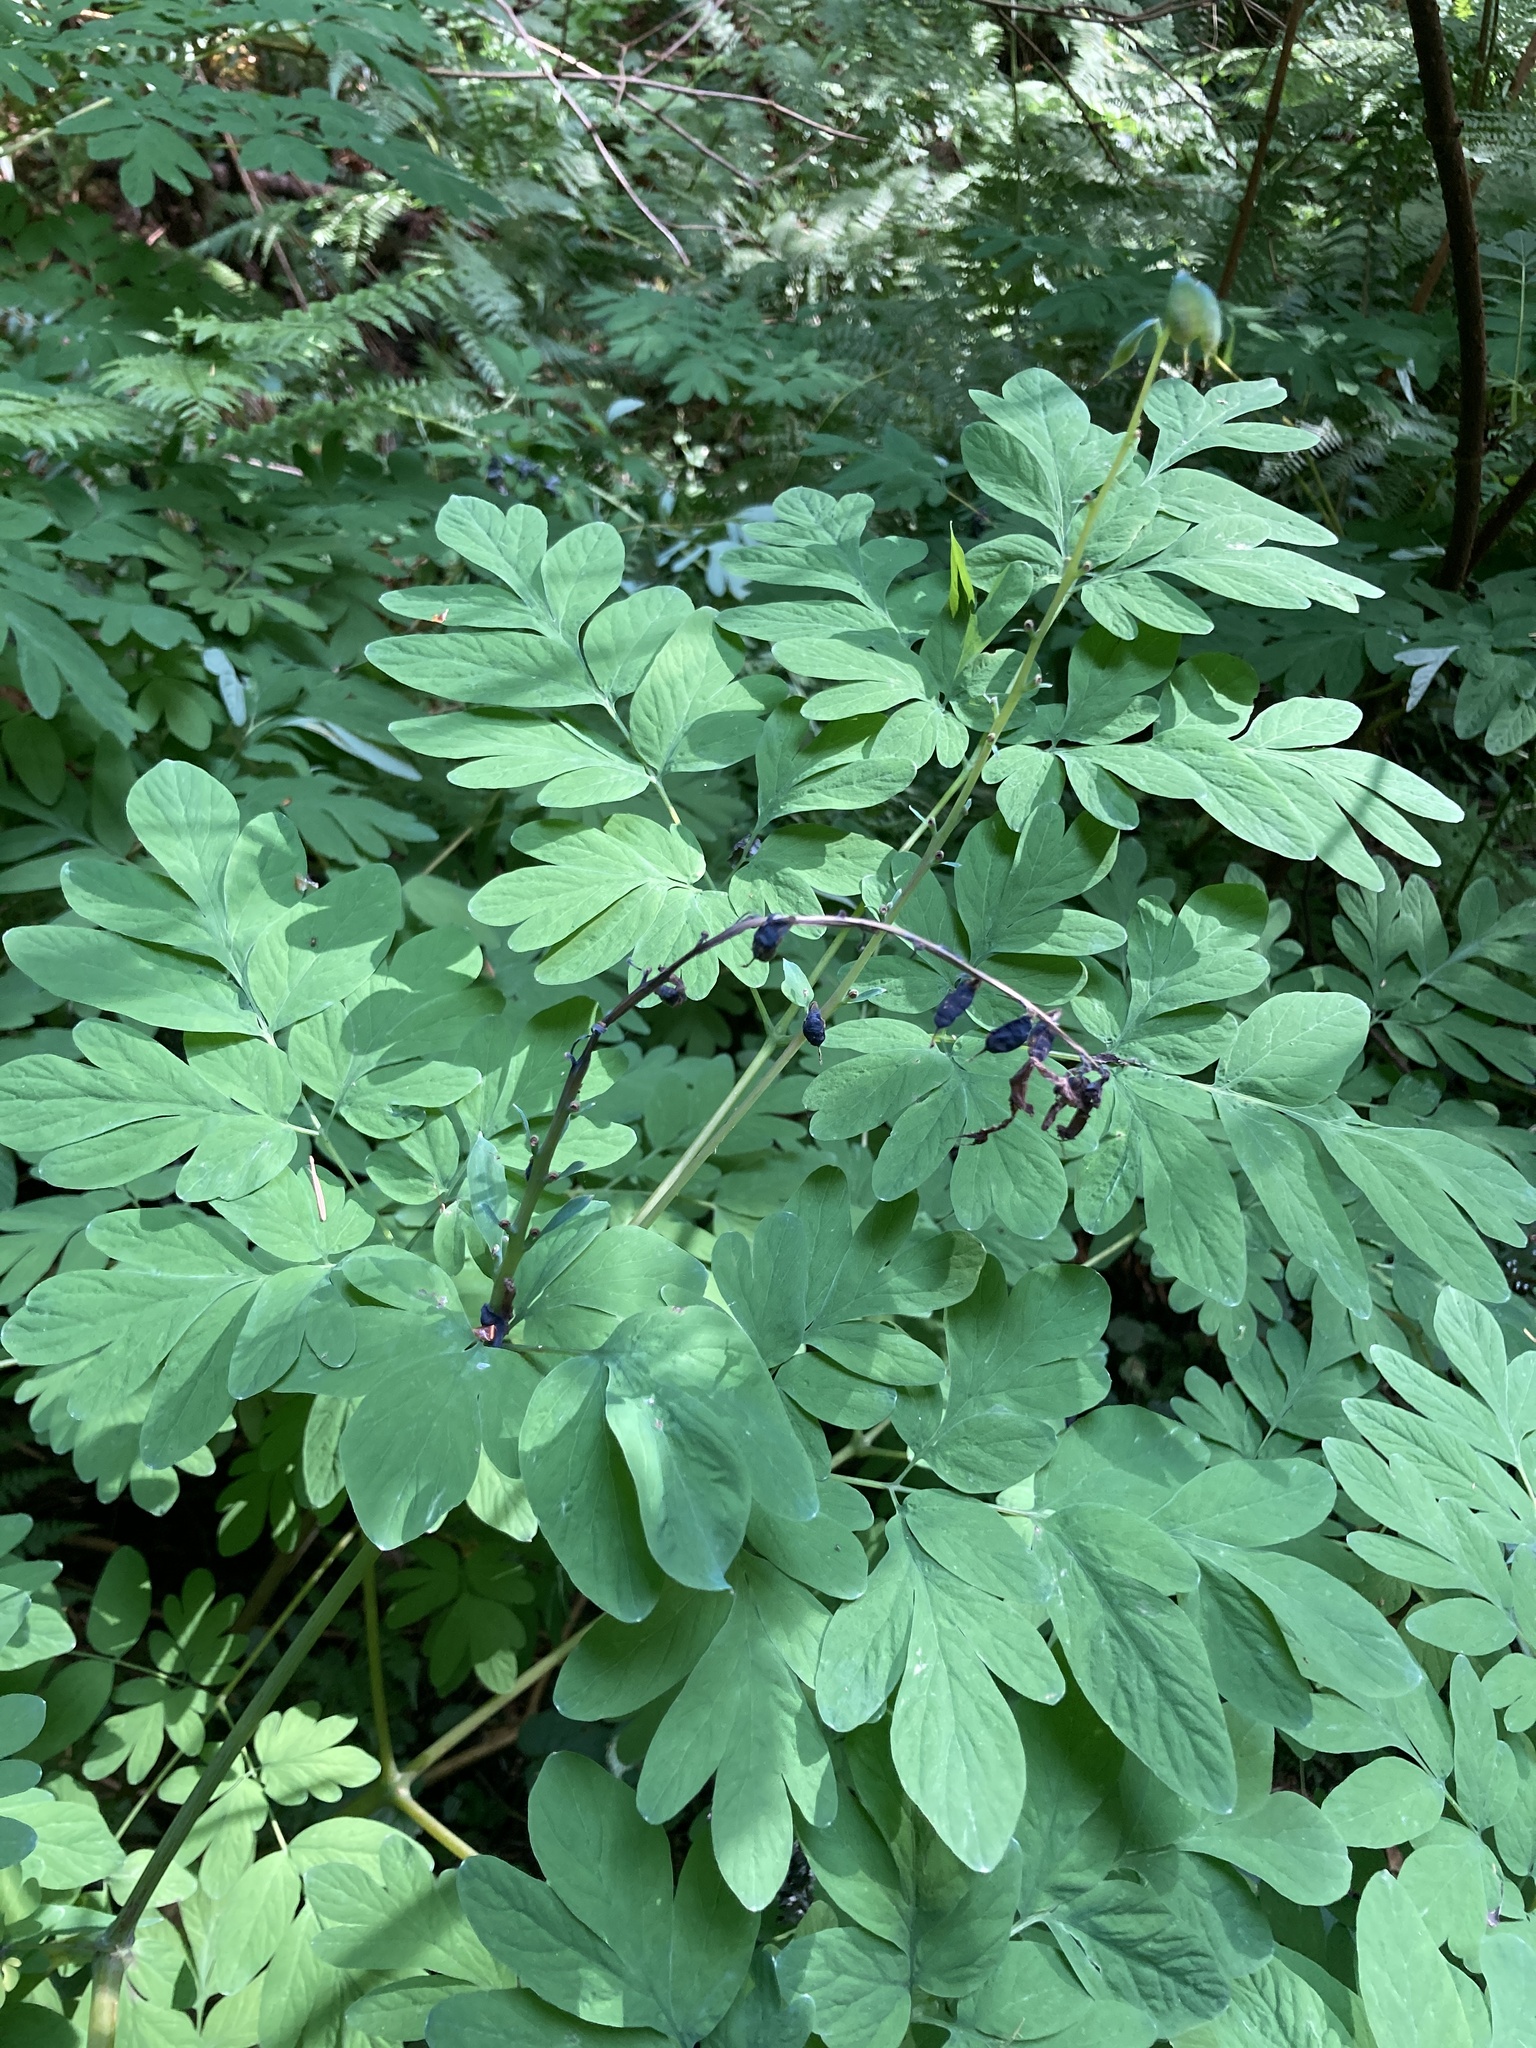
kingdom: Plantae
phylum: Tracheophyta
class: Magnoliopsida
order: Ranunculales
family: Papaveraceae
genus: Corydalis
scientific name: Corydalis scouleri
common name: Scouler's corydalis
